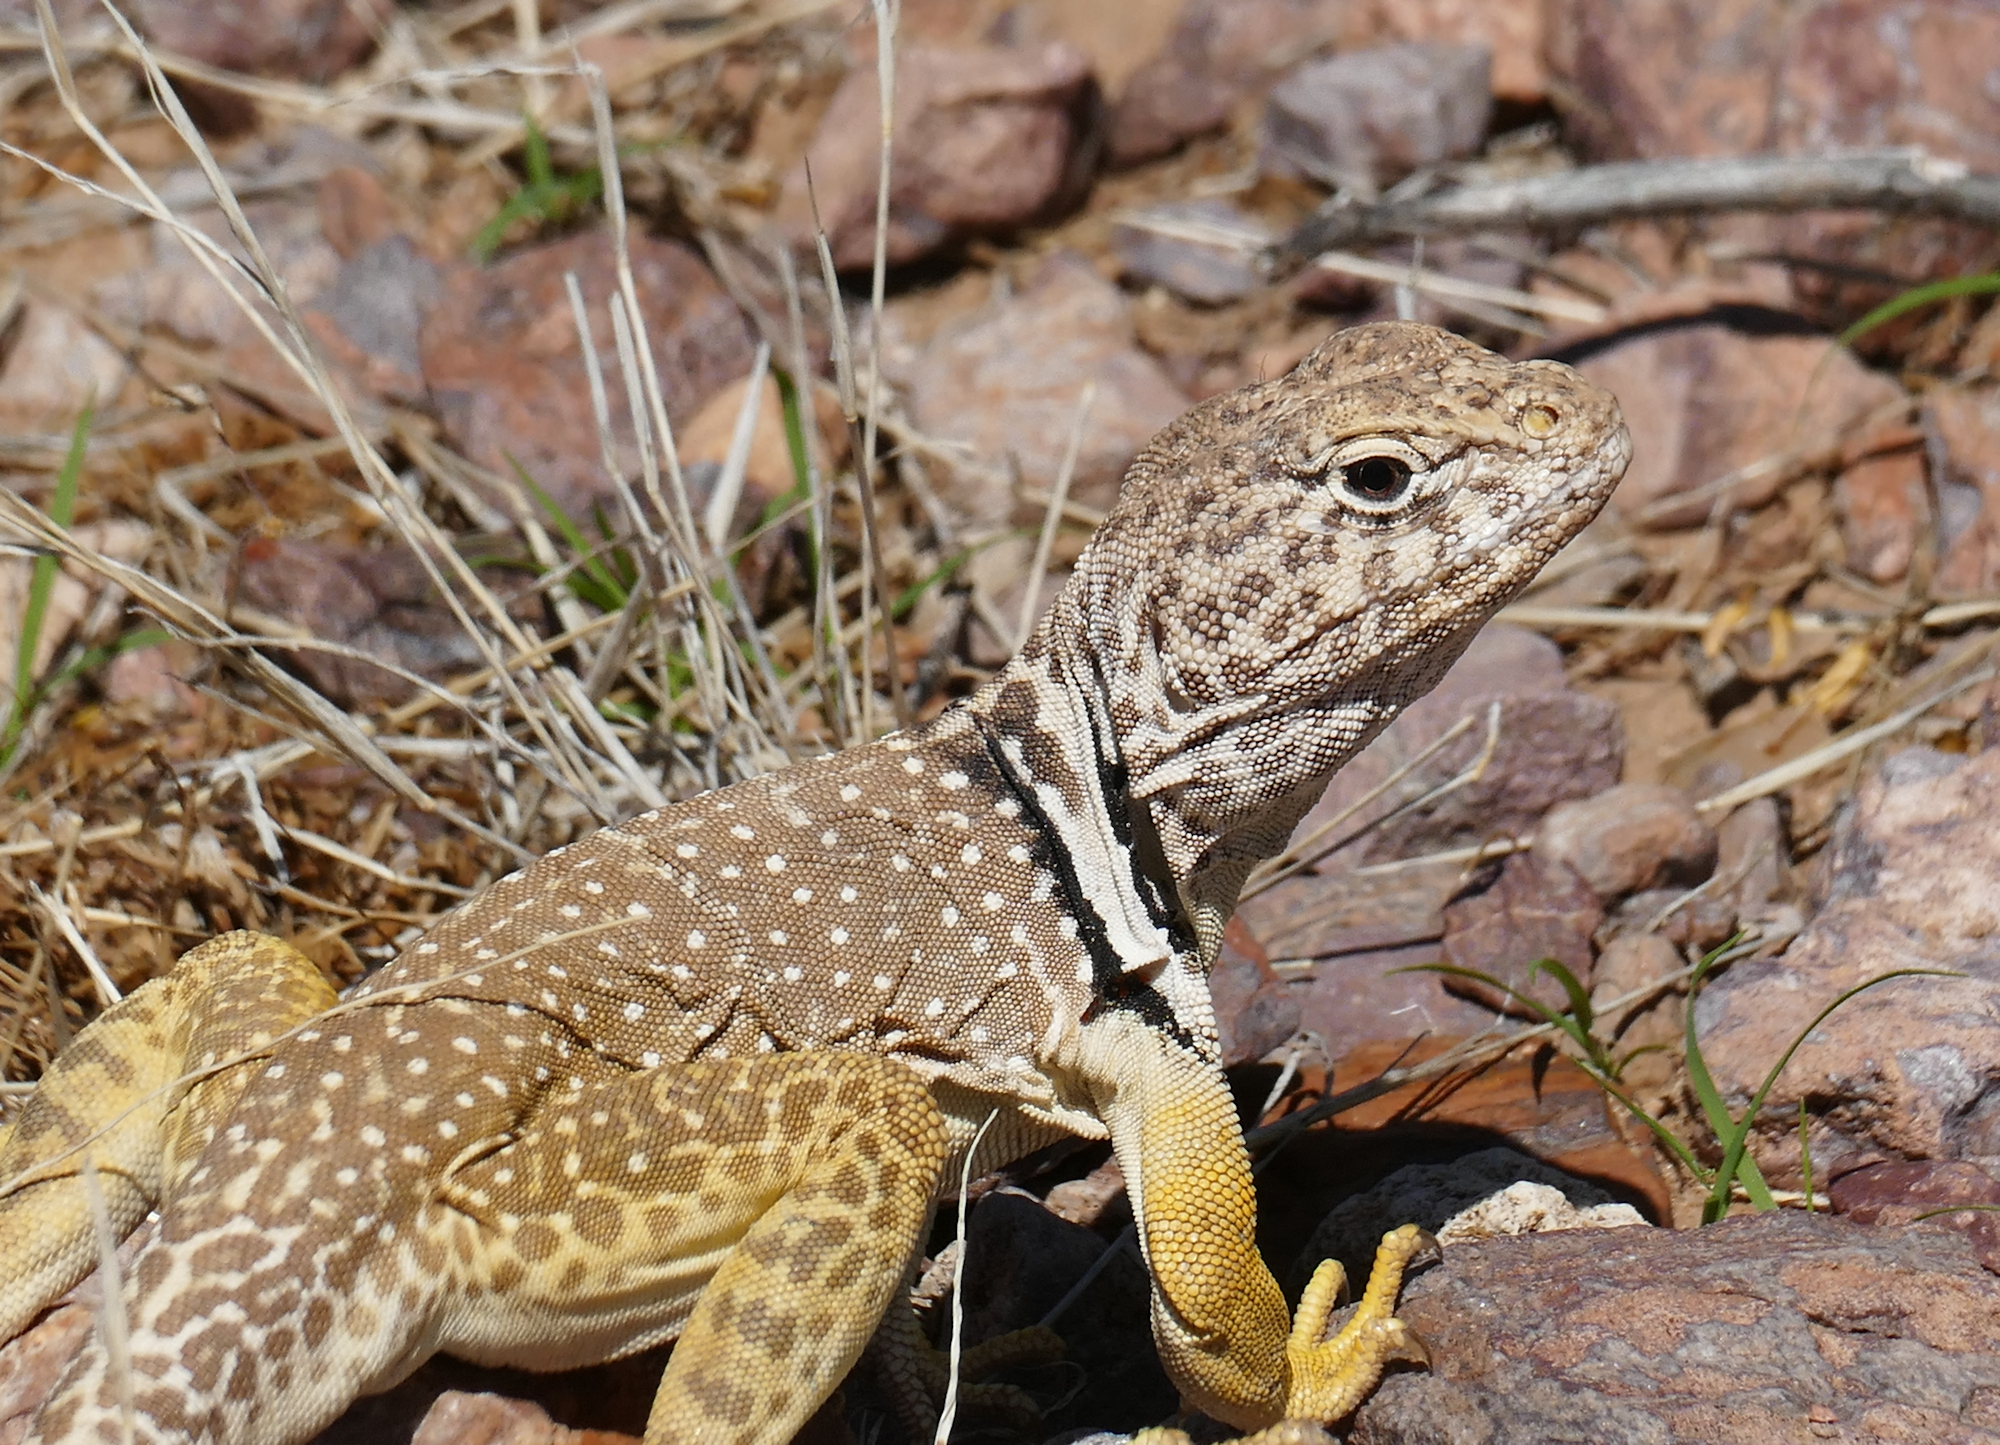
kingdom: Animalia
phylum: Chordata
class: Squamata
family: Crotaphytidae
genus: Crotaphytus
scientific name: Crotaphytus collaris
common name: Collared lizard
